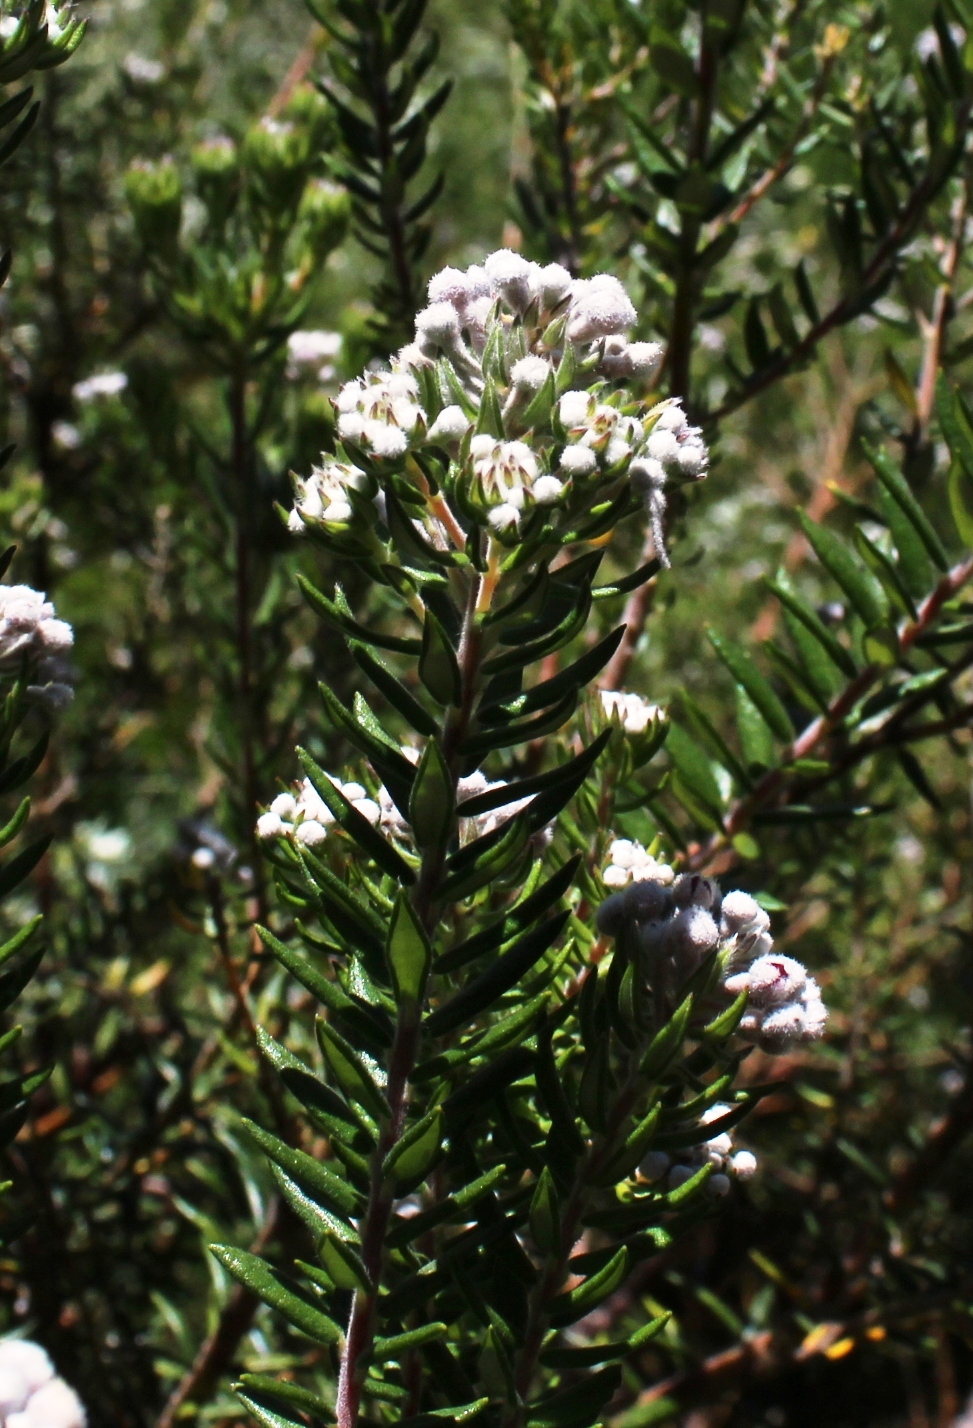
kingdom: Plantae
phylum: Tracheophyta
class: Magnoliopsida
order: Rosales
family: Rhamnaceae
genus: Phylica
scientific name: Phylica pinea
